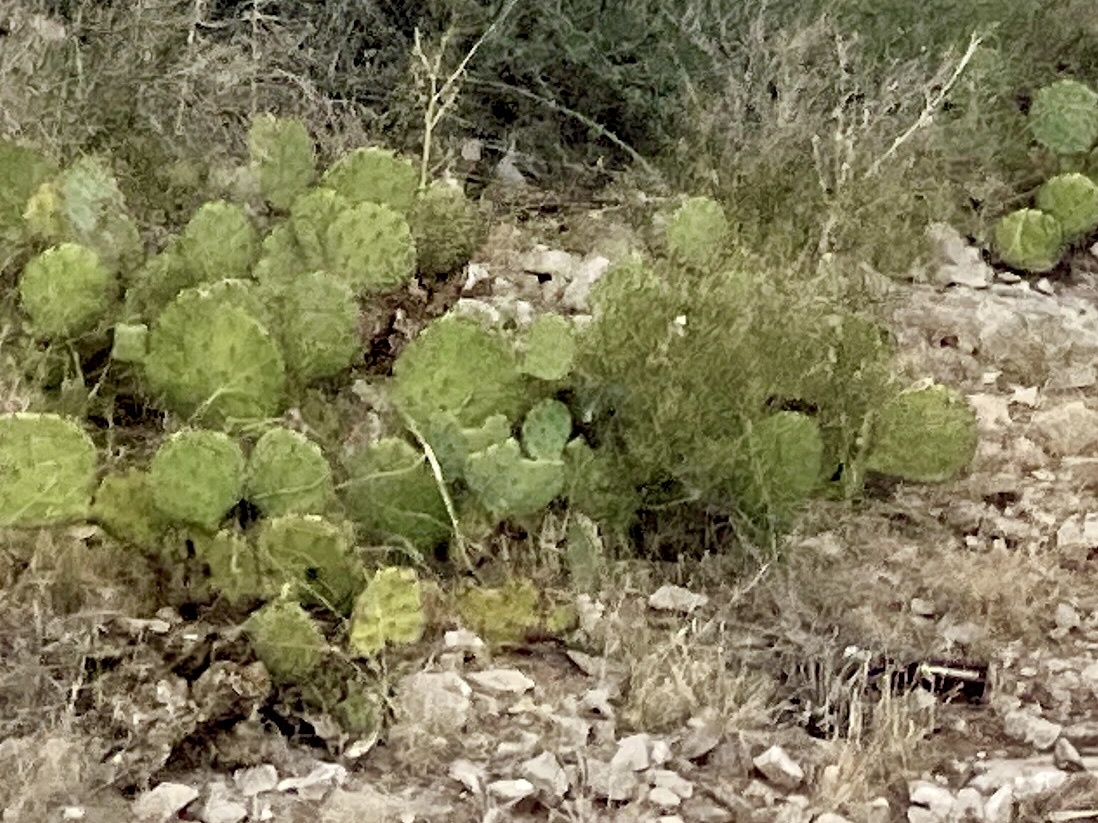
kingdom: Plantae
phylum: Tracheophyta
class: Magnoliopsida
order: Caryophyllales
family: Cactaceae
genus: Opuntia
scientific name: Opuntia engelmannii
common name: Cactus-apple
